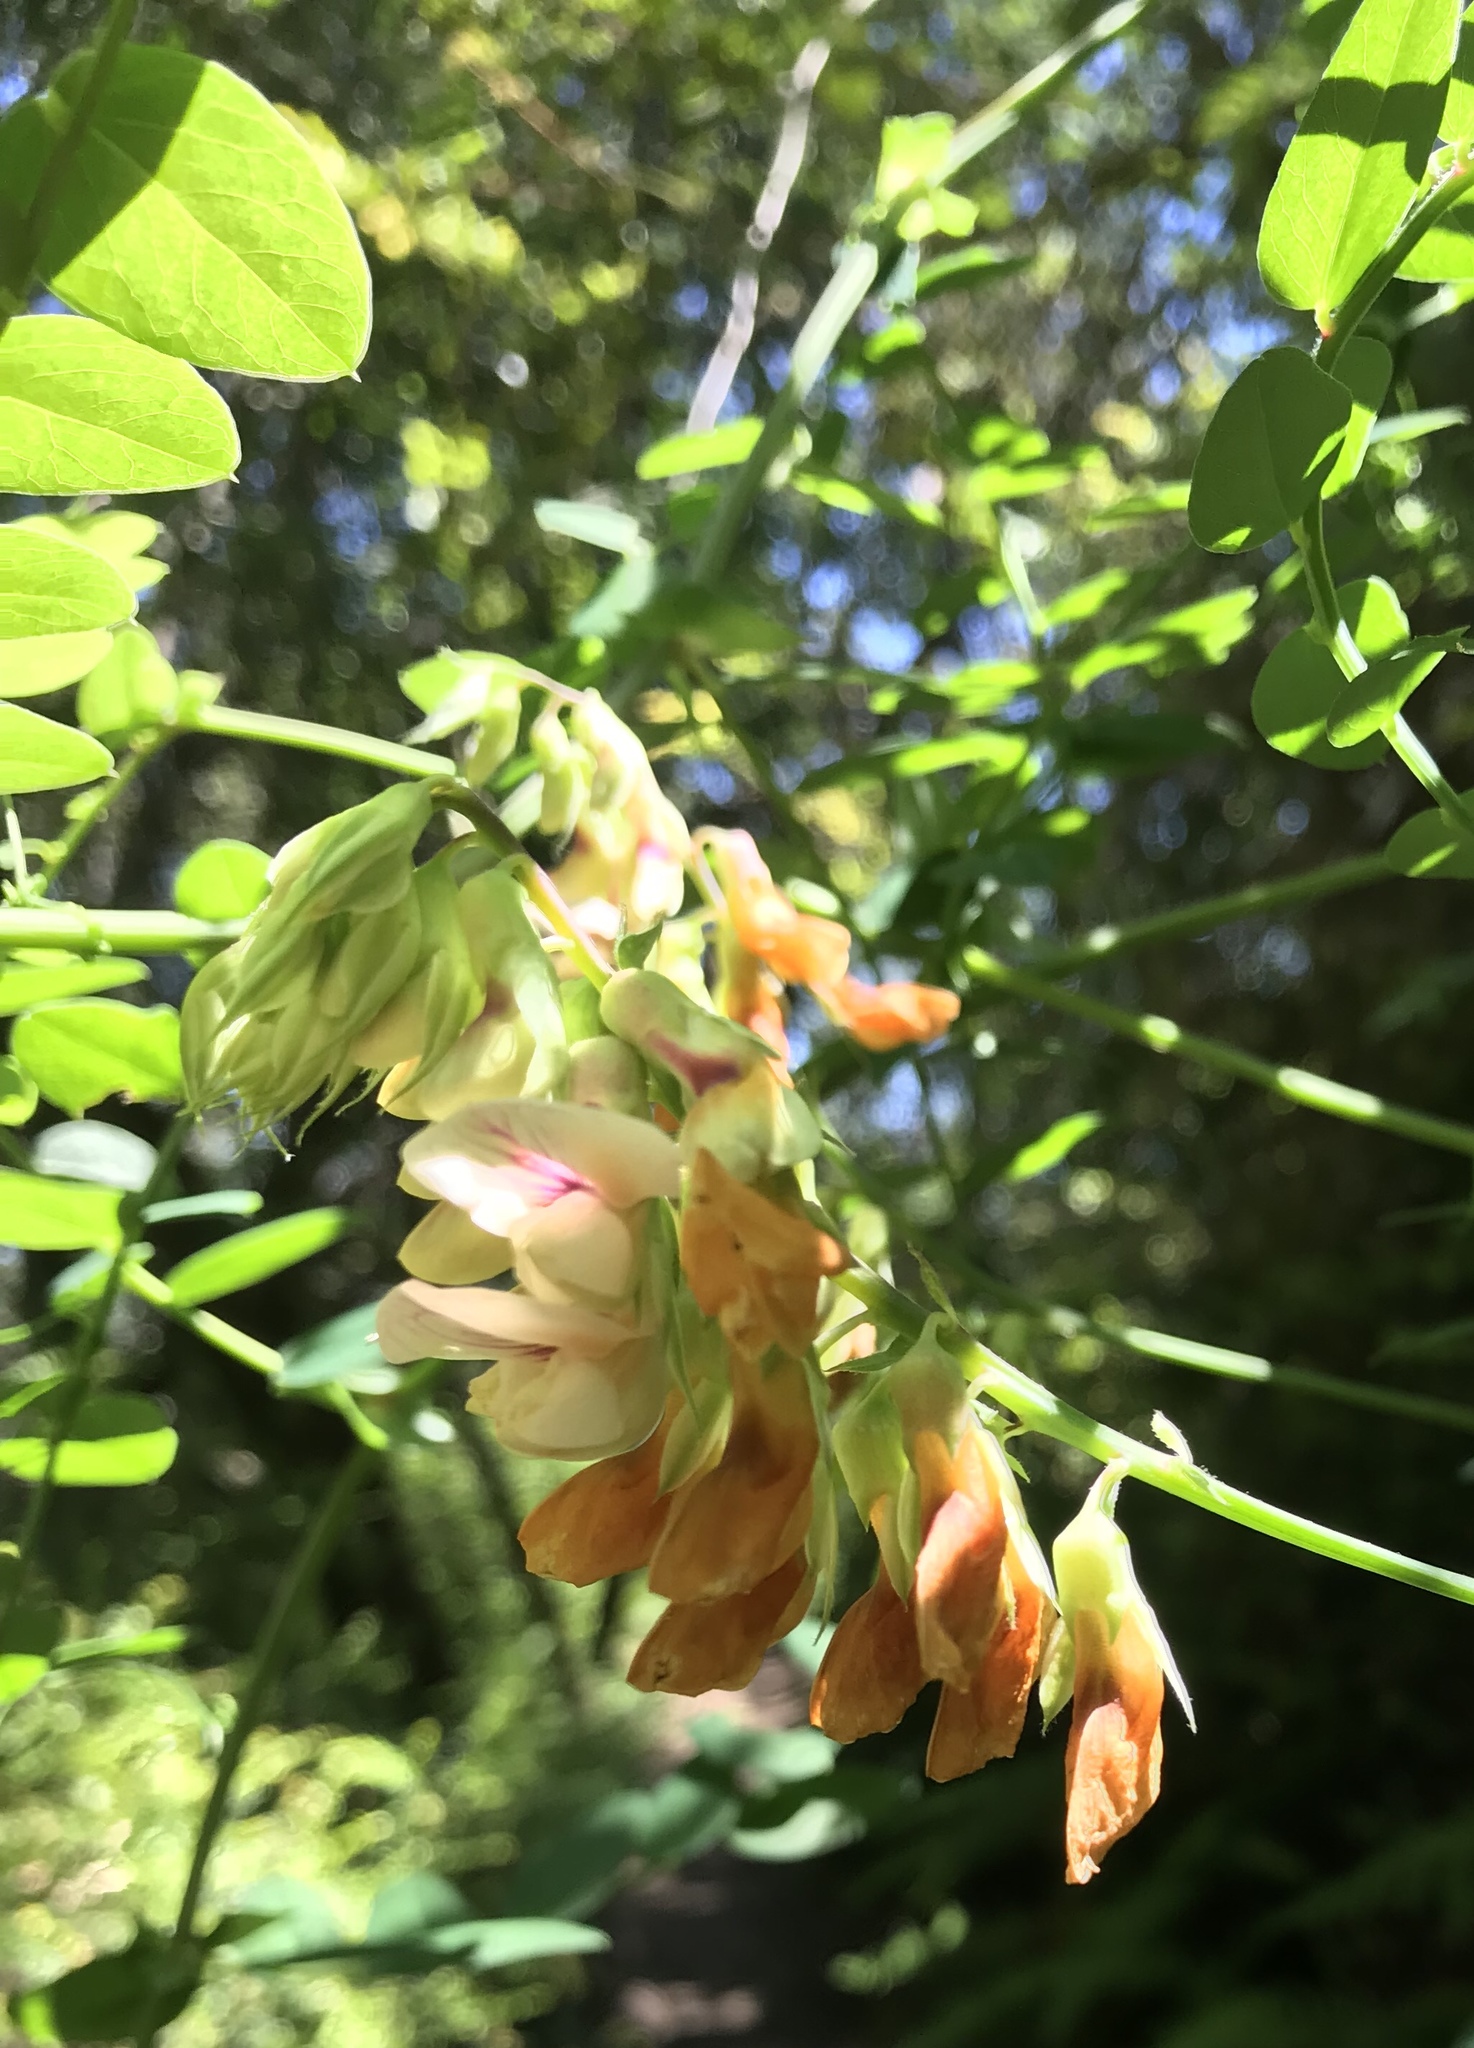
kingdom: Plantae
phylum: Tracheophyta
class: Magnoliopsida
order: Fabales
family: Fabaceae
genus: Lathyrus
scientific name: Lathyrus vestitus
